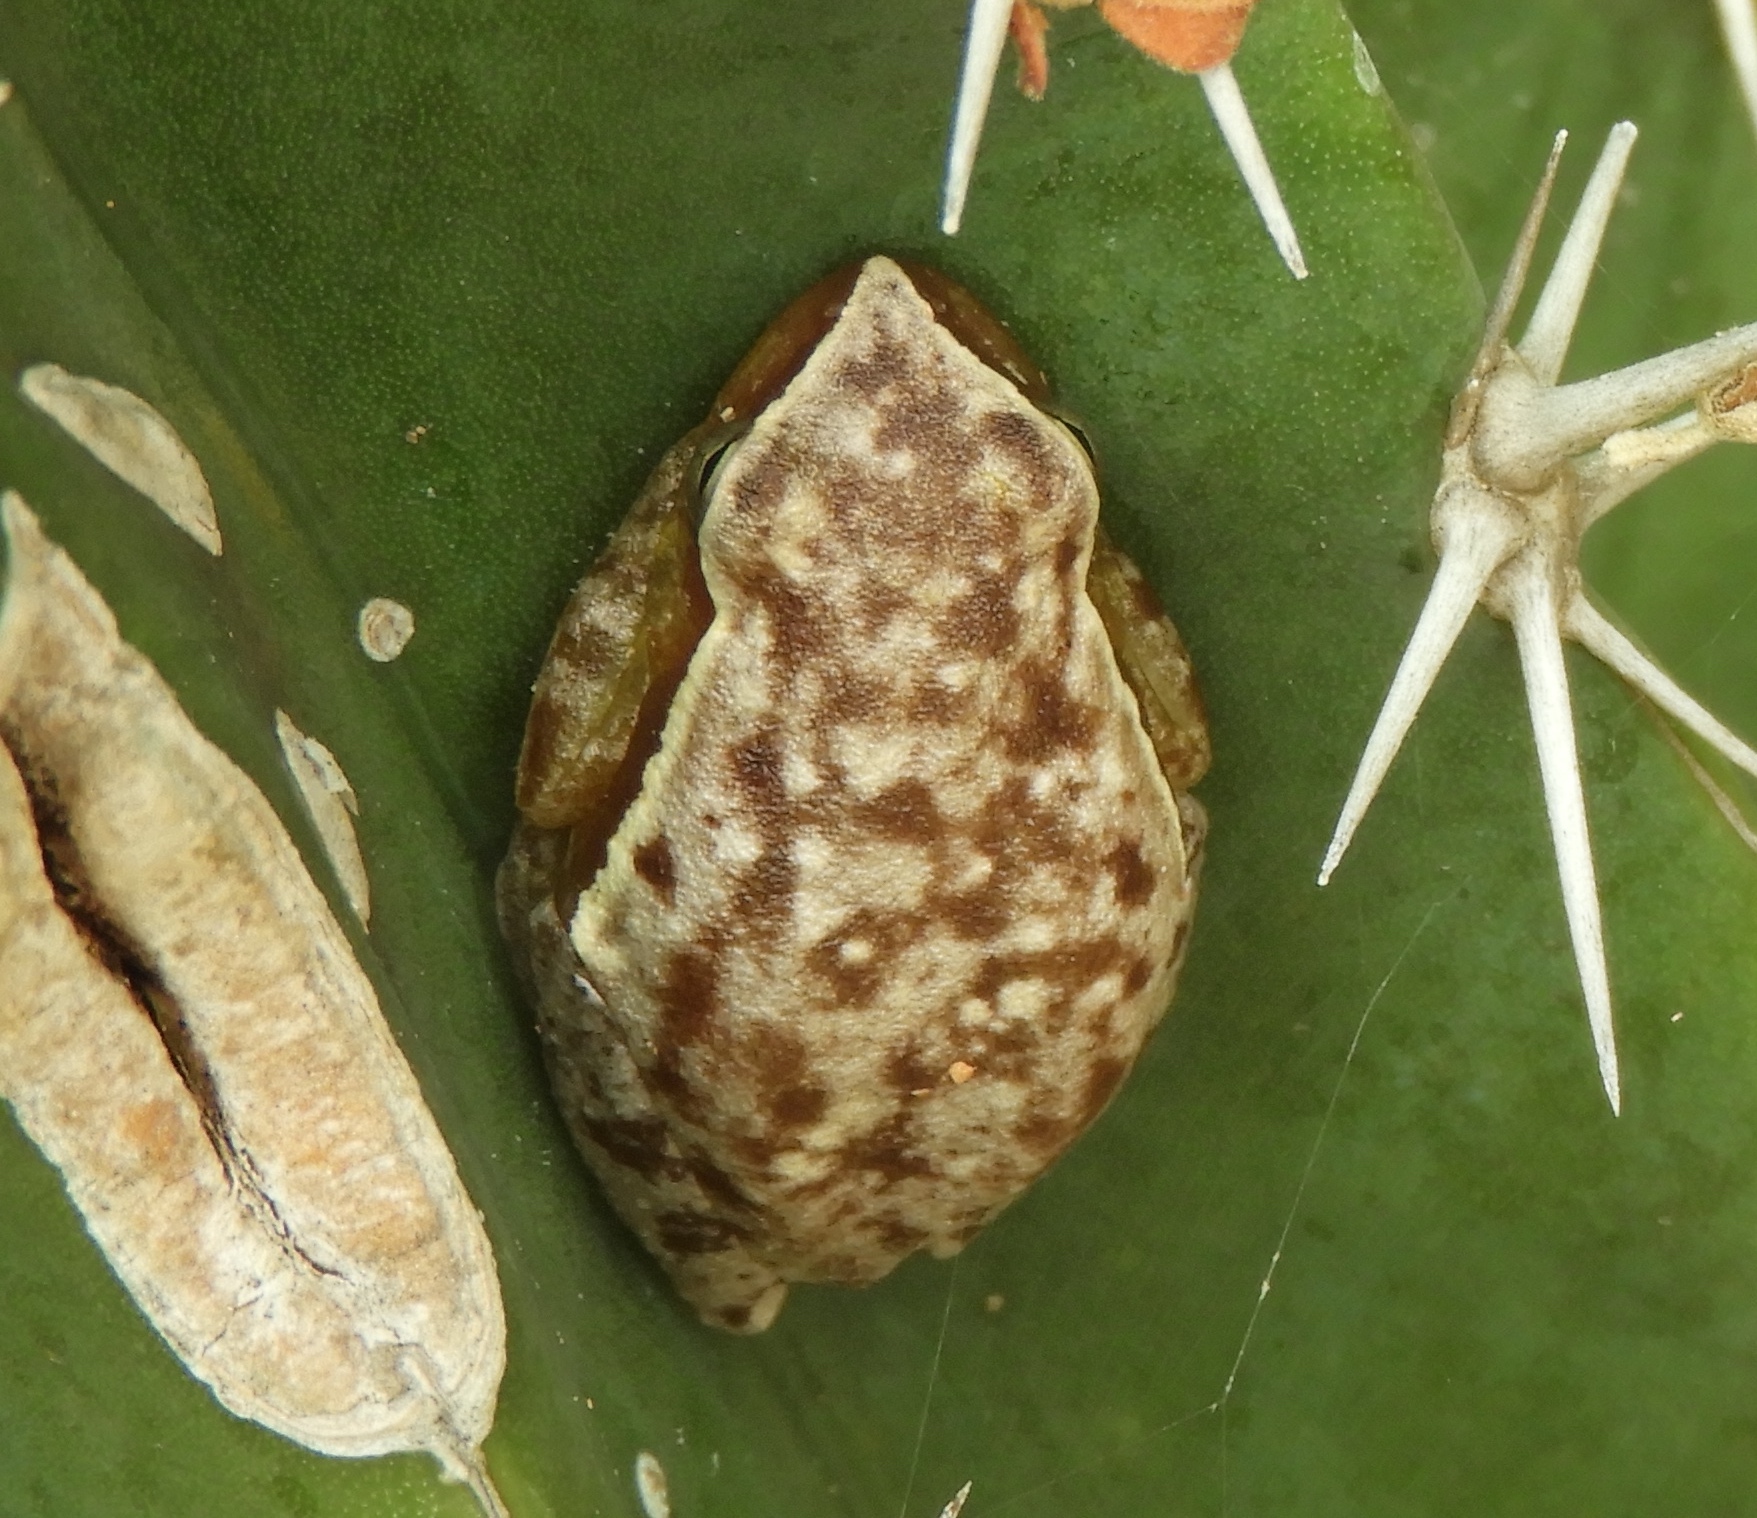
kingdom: Animalia
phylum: Chordata
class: Amphibia
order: Anura
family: Hylidae
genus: Tlalocohyla
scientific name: Tlalocohyla smithii
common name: Dwarf mexican treefrog
